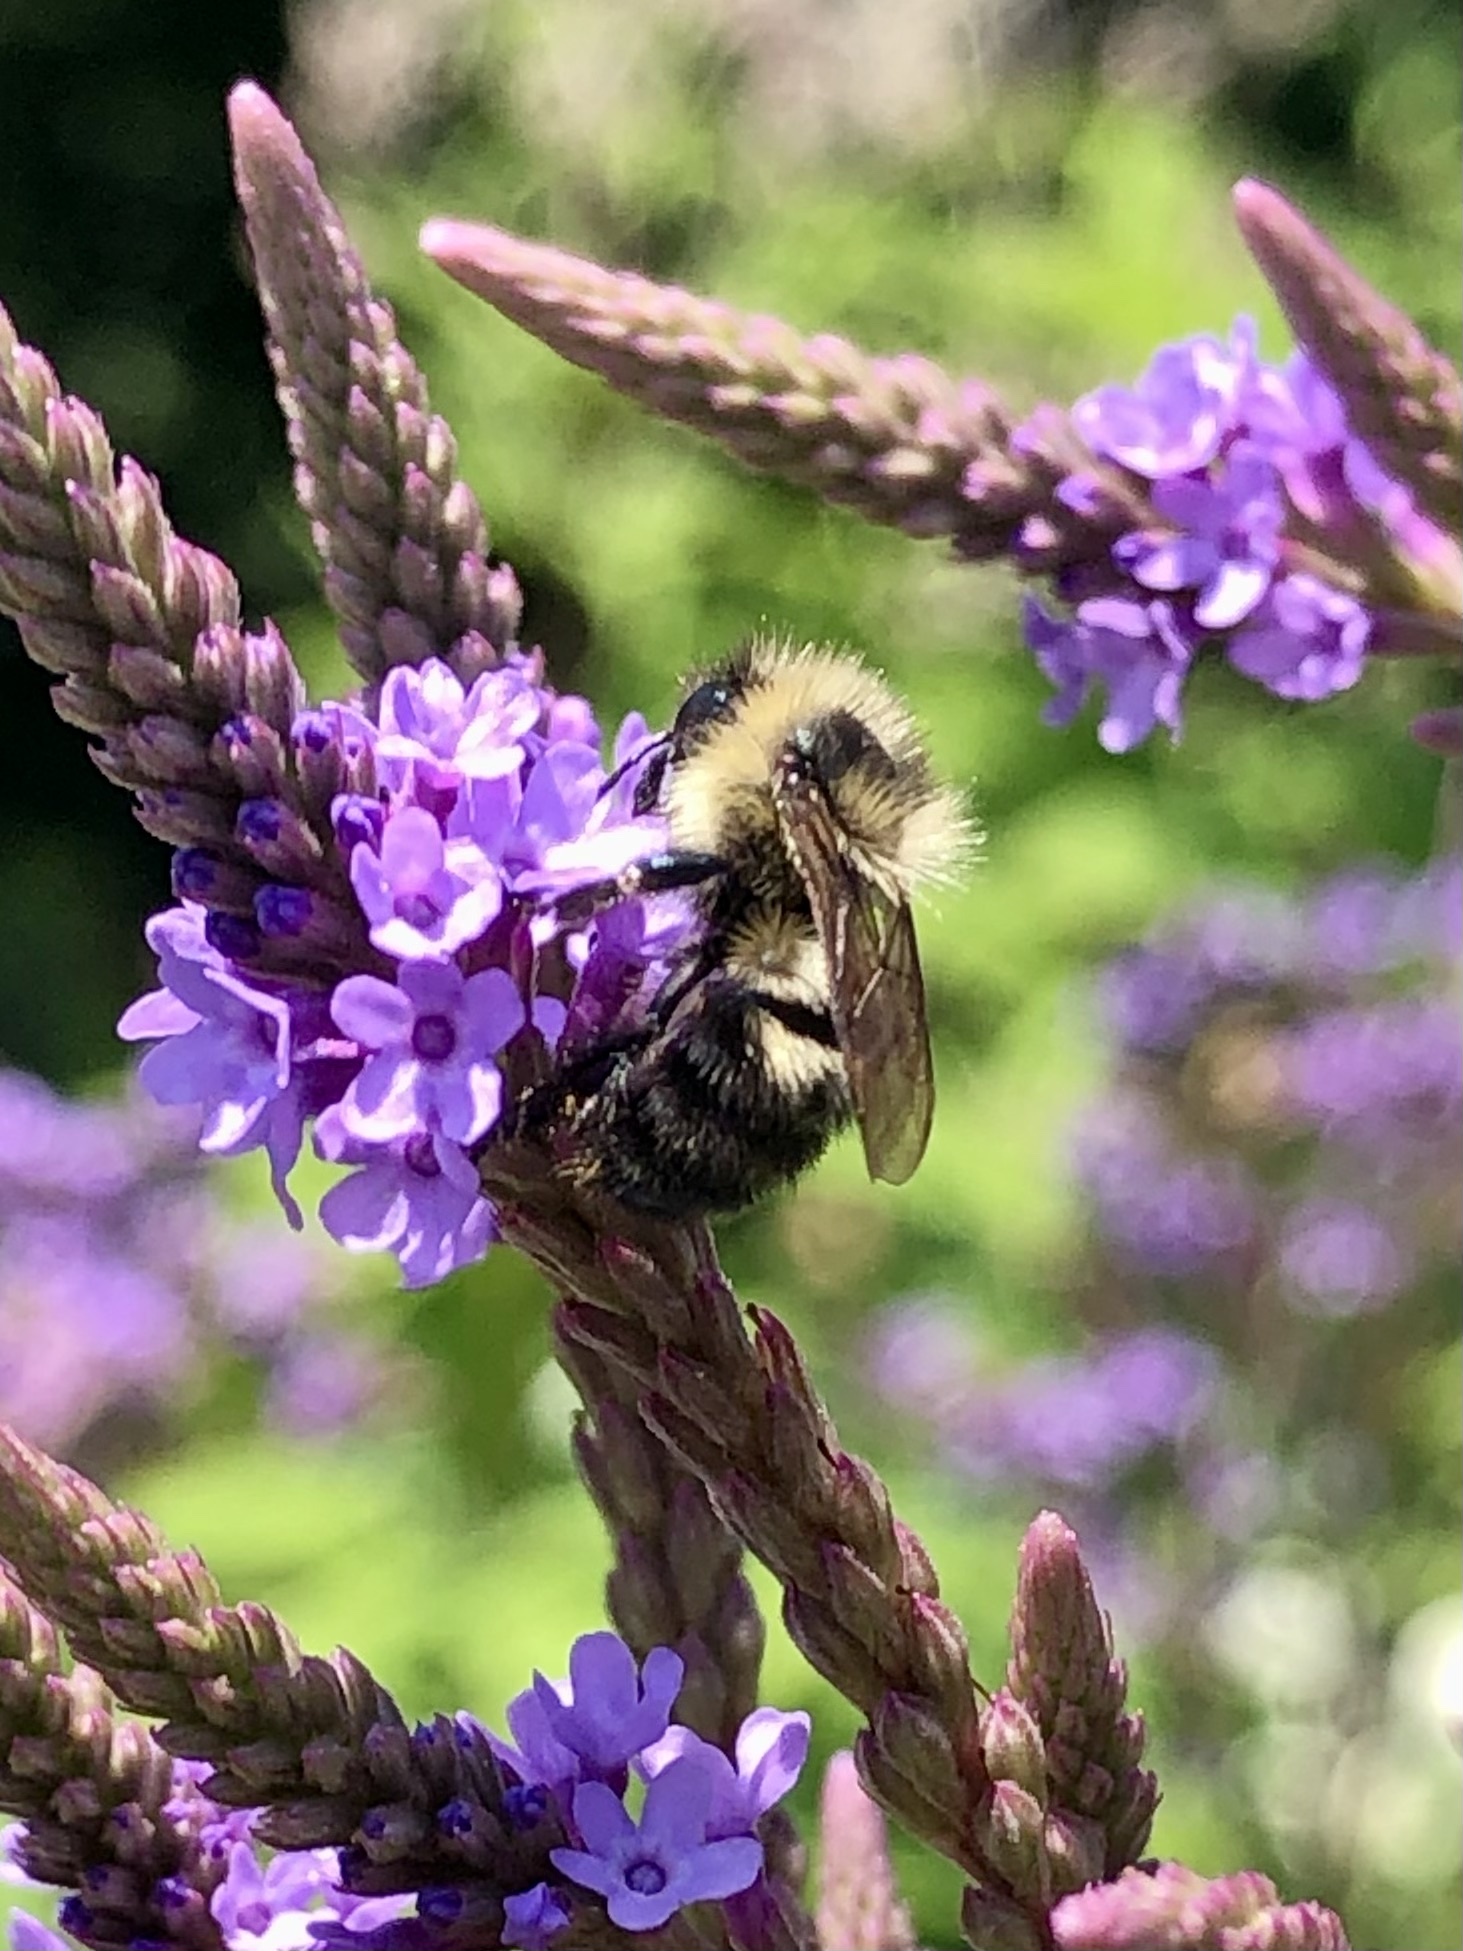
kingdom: Animalia
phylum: Arthropoda
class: Insecta
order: Hymenoptera
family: Apidae
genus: Bombus
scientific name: Bombus rufocinctus
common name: Red-belted bumble bee
